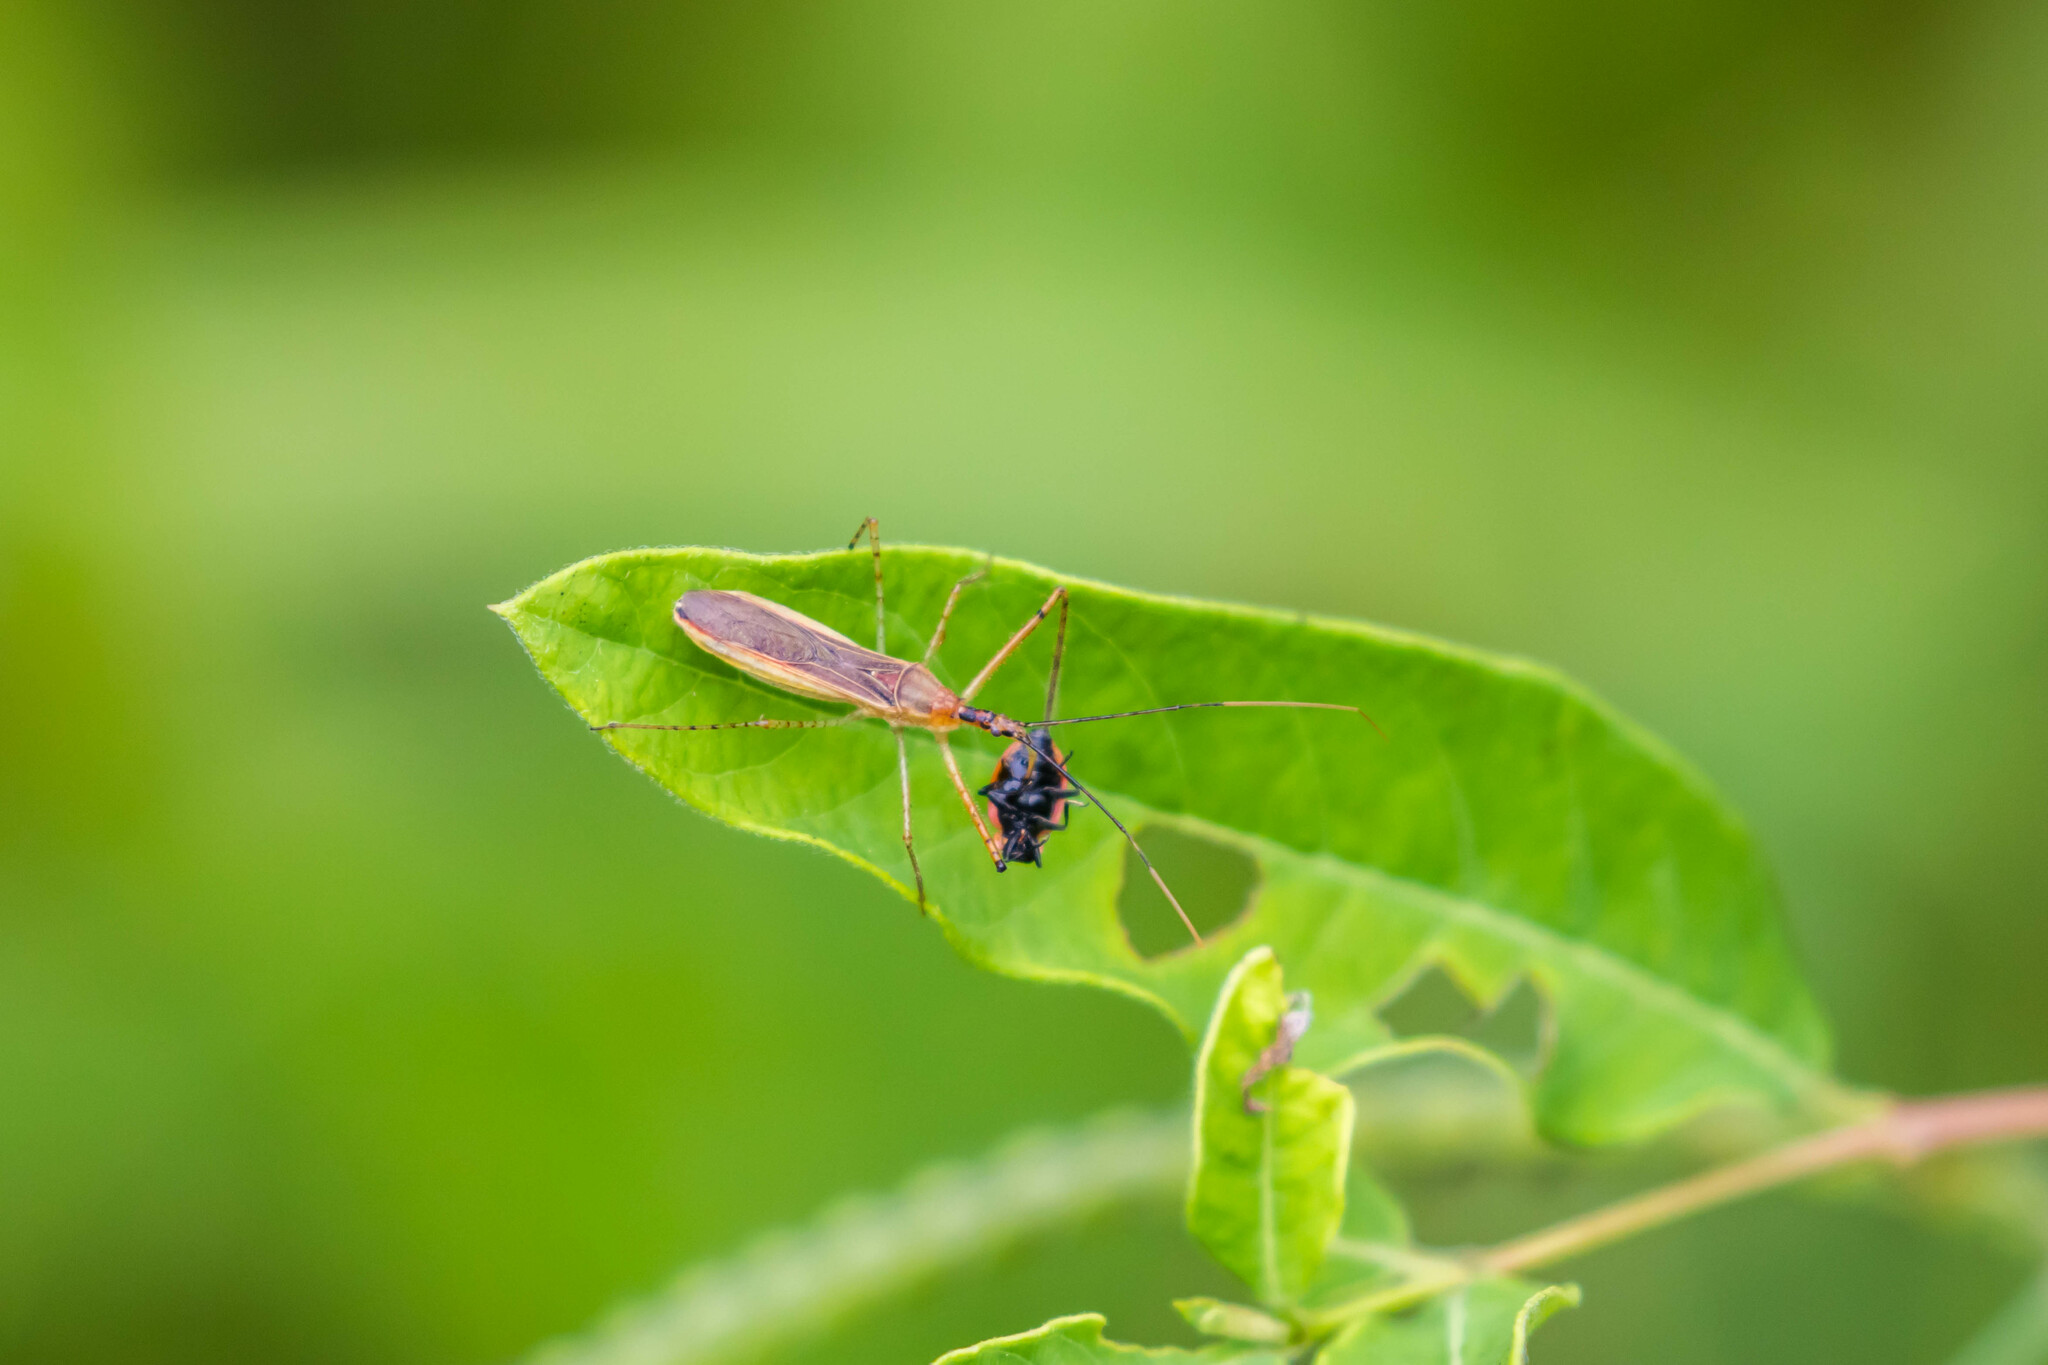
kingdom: Animalia
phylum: Arthropoda
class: Insecta
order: Hemiptera
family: Reduviidae
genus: Zelus
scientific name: Zelus cervicalis
